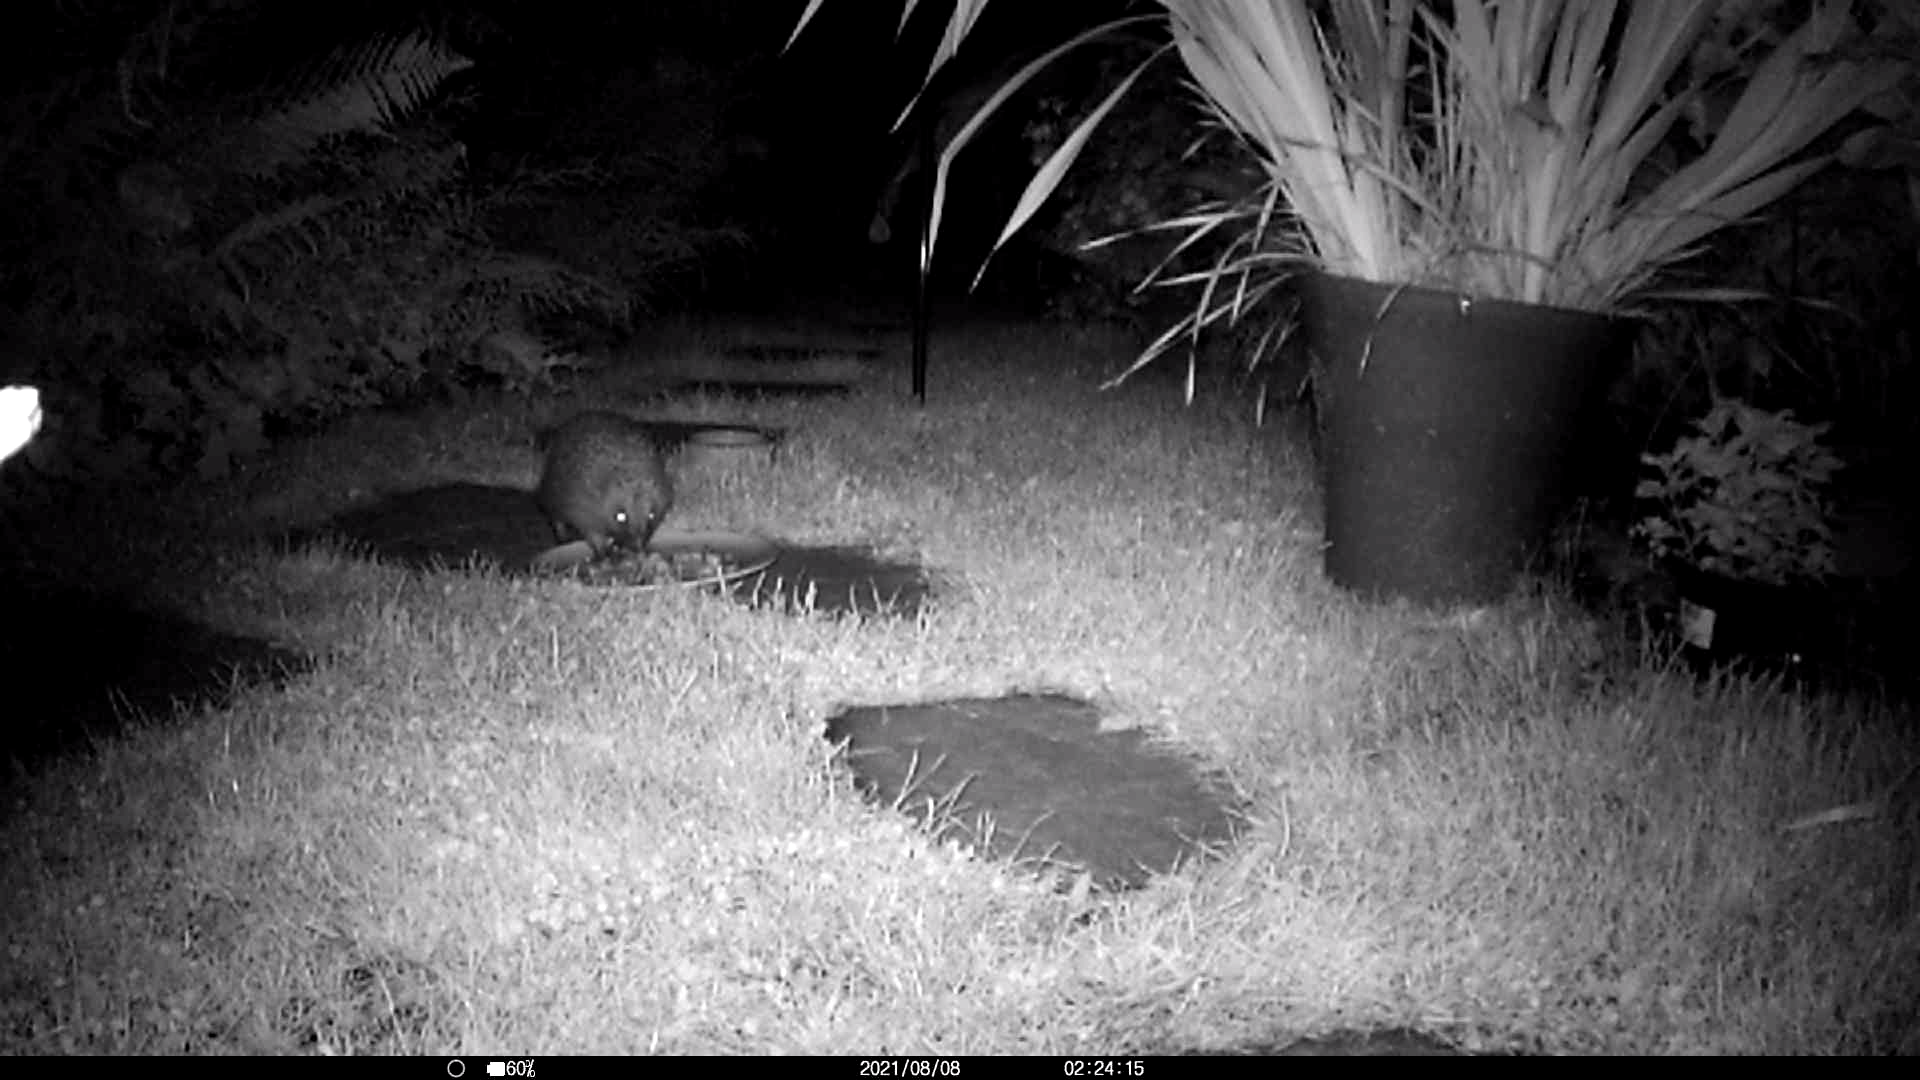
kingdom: Animalia
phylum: Chordata
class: Mammalia
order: Erinaceomorpha
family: Erinaceidae
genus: Erinaceus
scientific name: Erinaceus europaeus
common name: West european hedgehog
